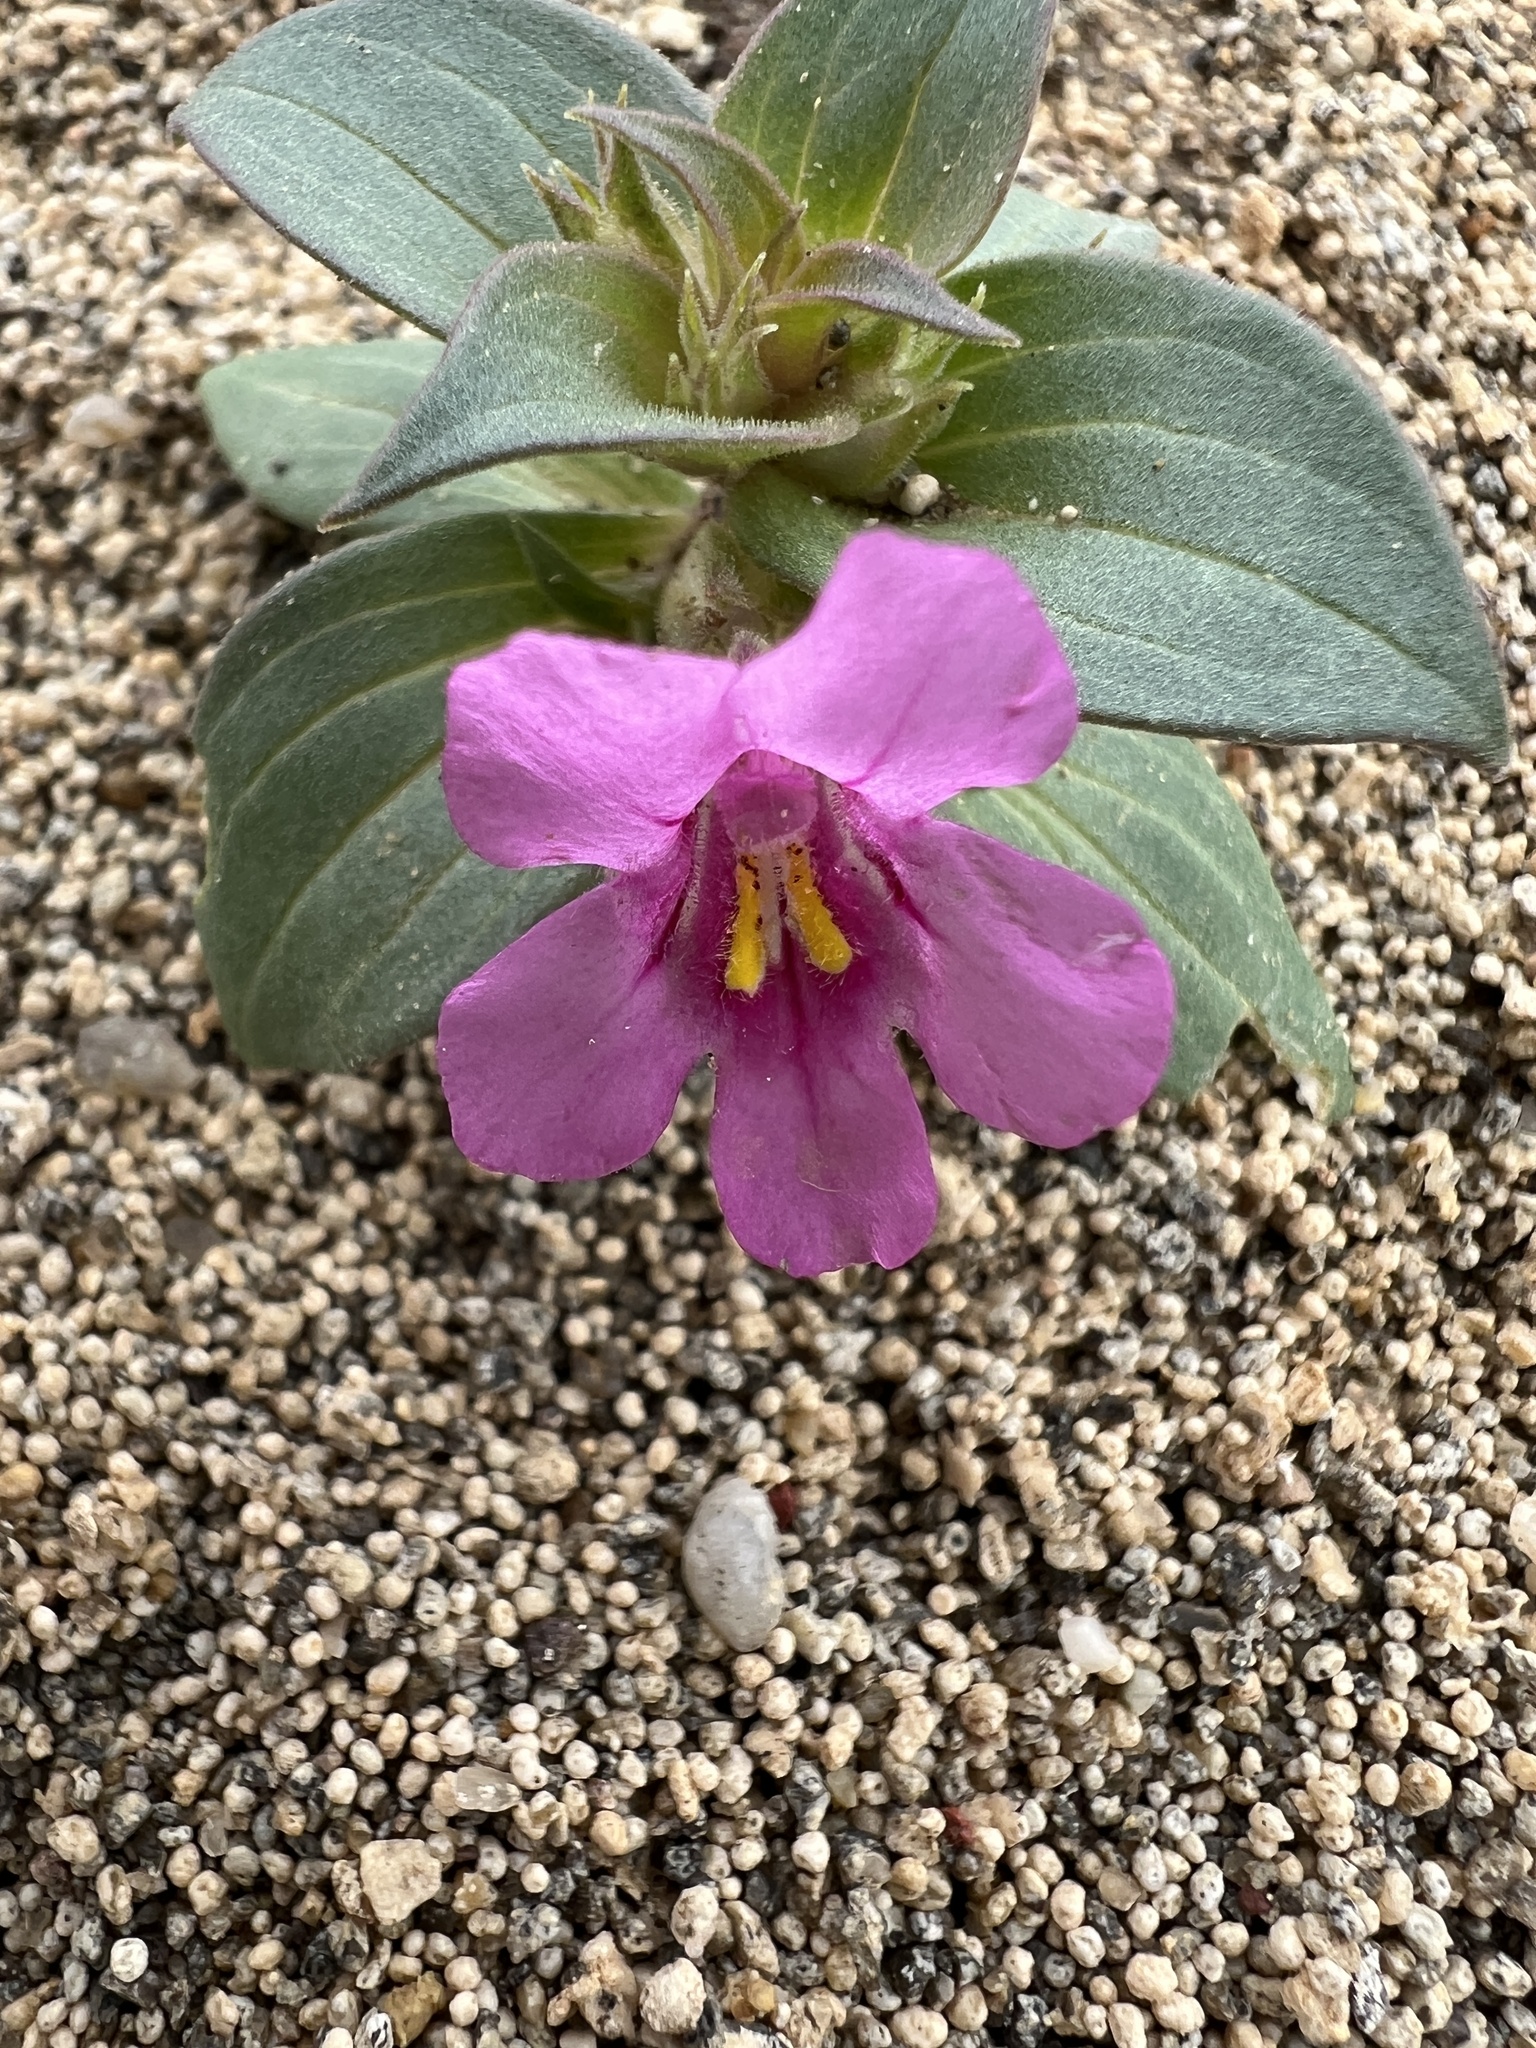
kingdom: Plantae
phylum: Tracheophyta
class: Magnoliopsida
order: Lamiales
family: Phrymaceae
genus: Diplacus
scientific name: Diplacus cusickioides
